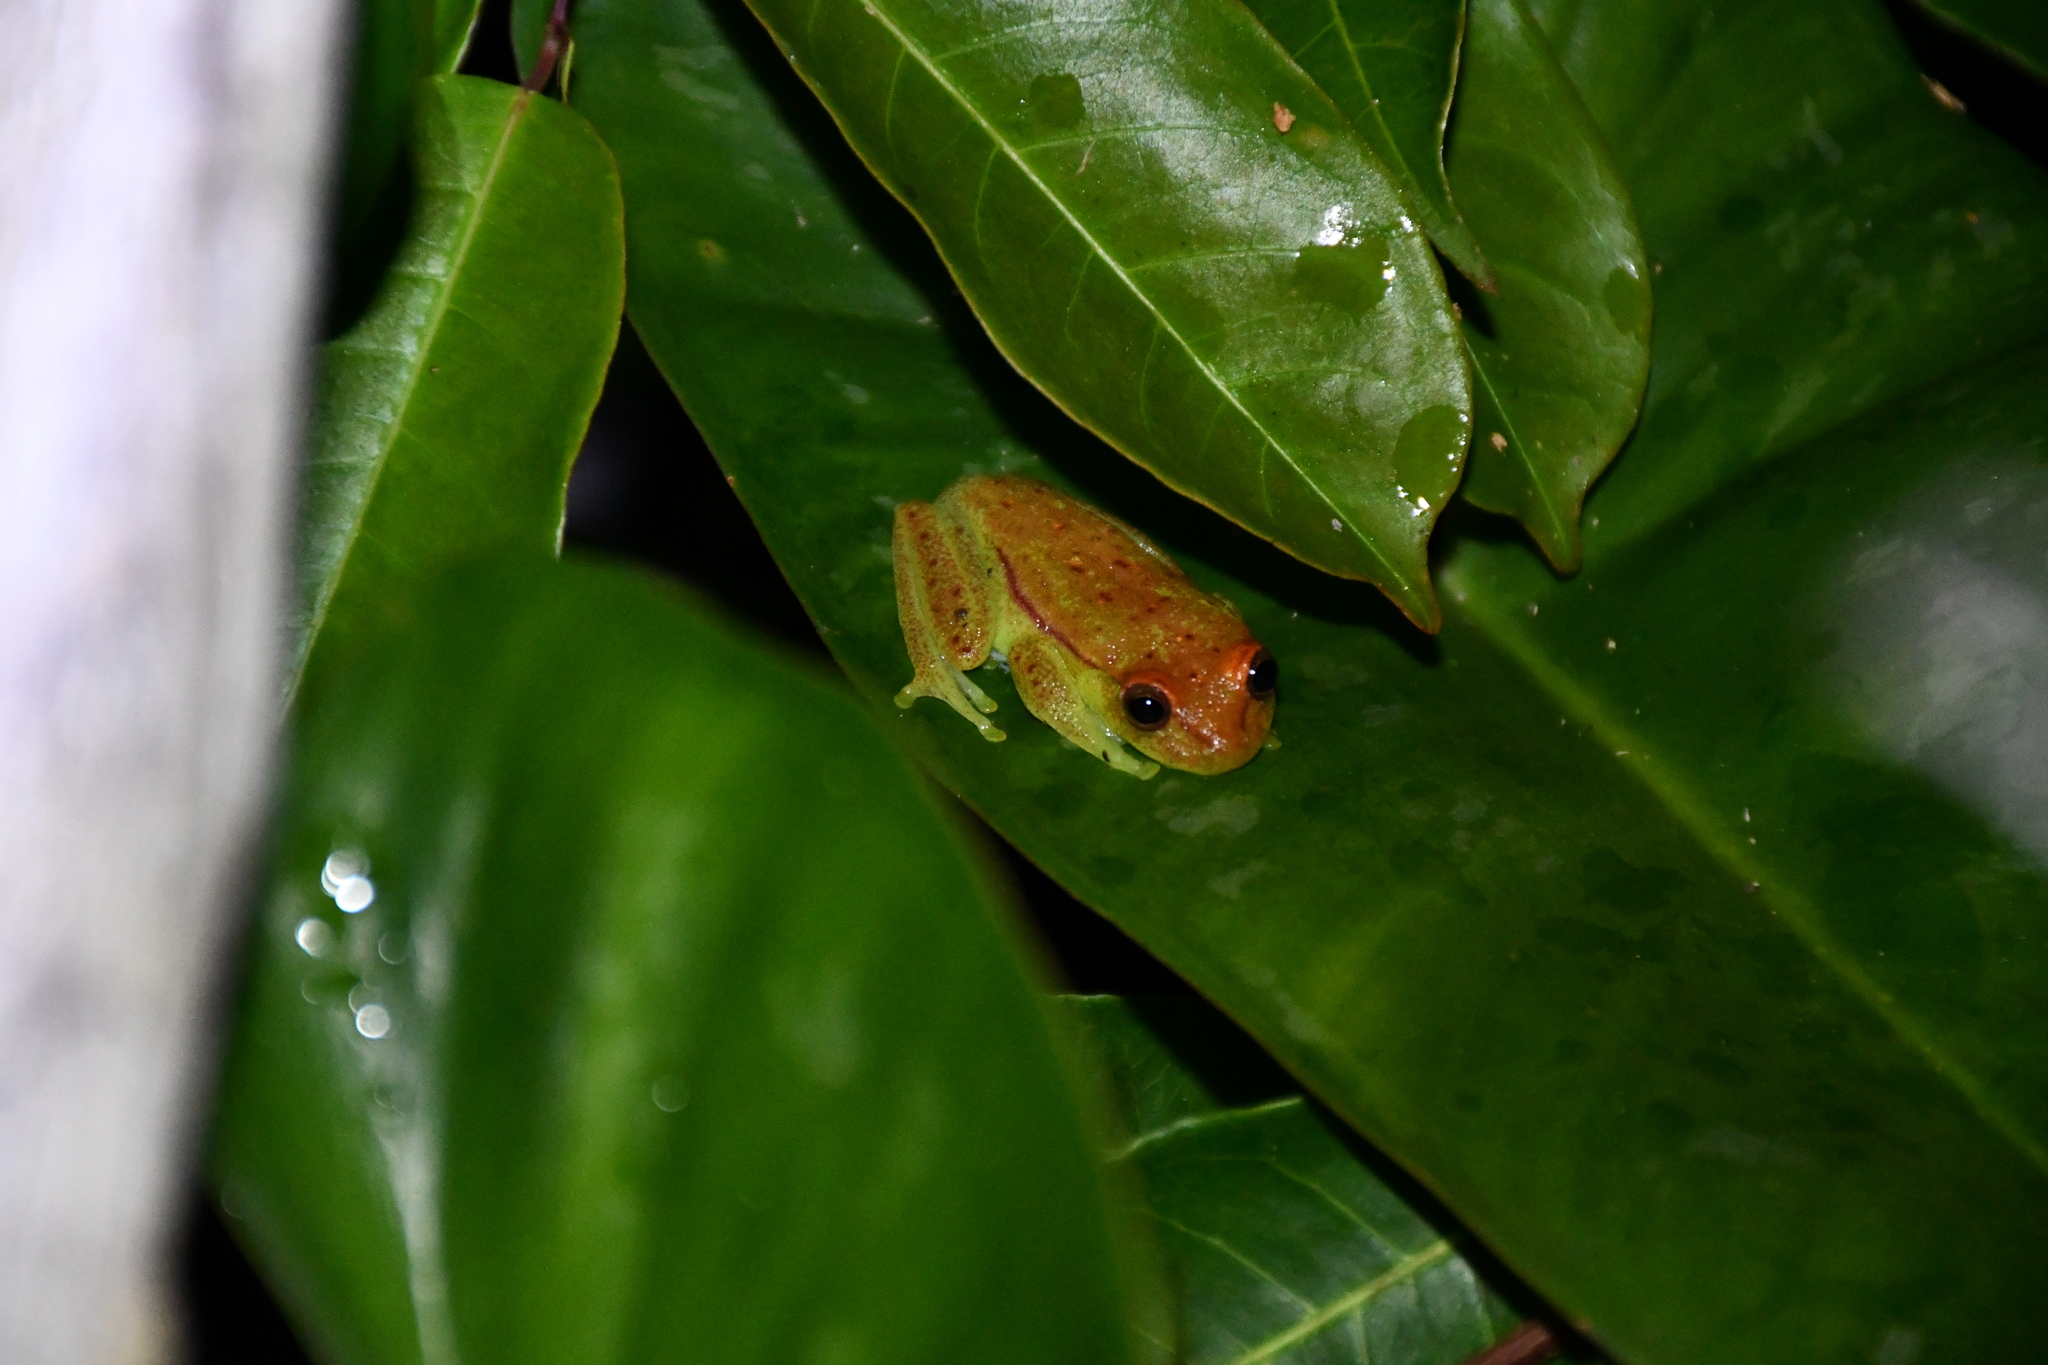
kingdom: Animalia
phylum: Chordata
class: Amphibia
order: Anura
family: Hylidae
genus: Boana
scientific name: Boana punctata
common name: Polka-dot treefrog
